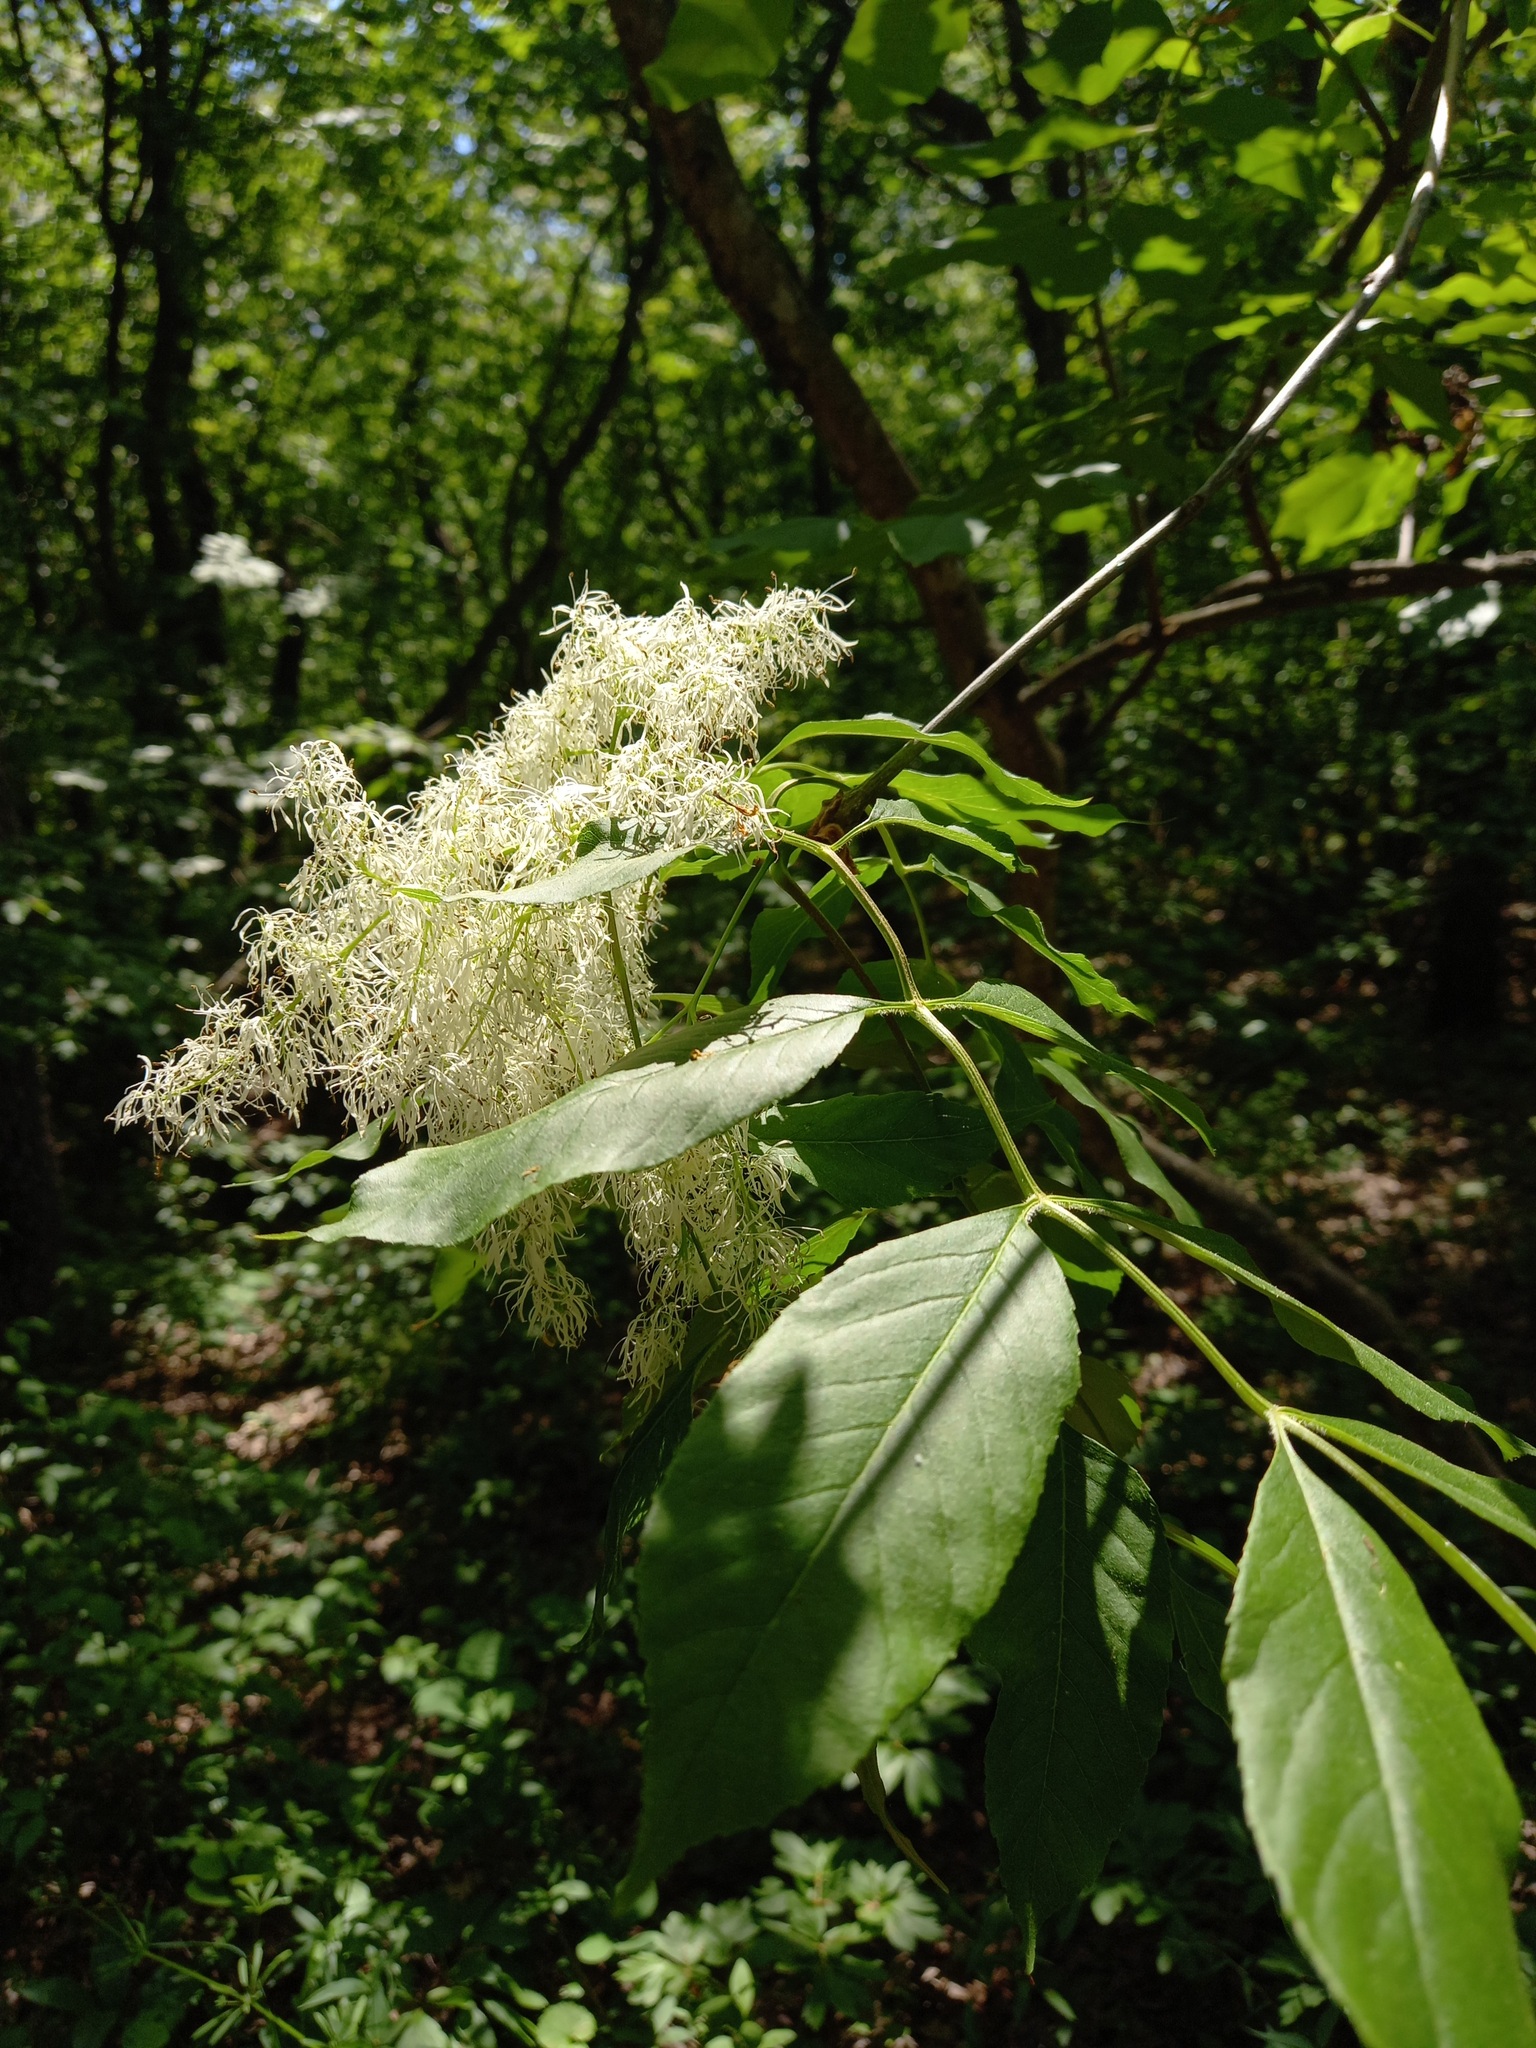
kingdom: Plantae
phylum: Tracheophyta
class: Magnoliopsida
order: Lamiales
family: Oleaceae
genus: Fraxinus
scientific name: Fraxinus ornus
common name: Manna ash
